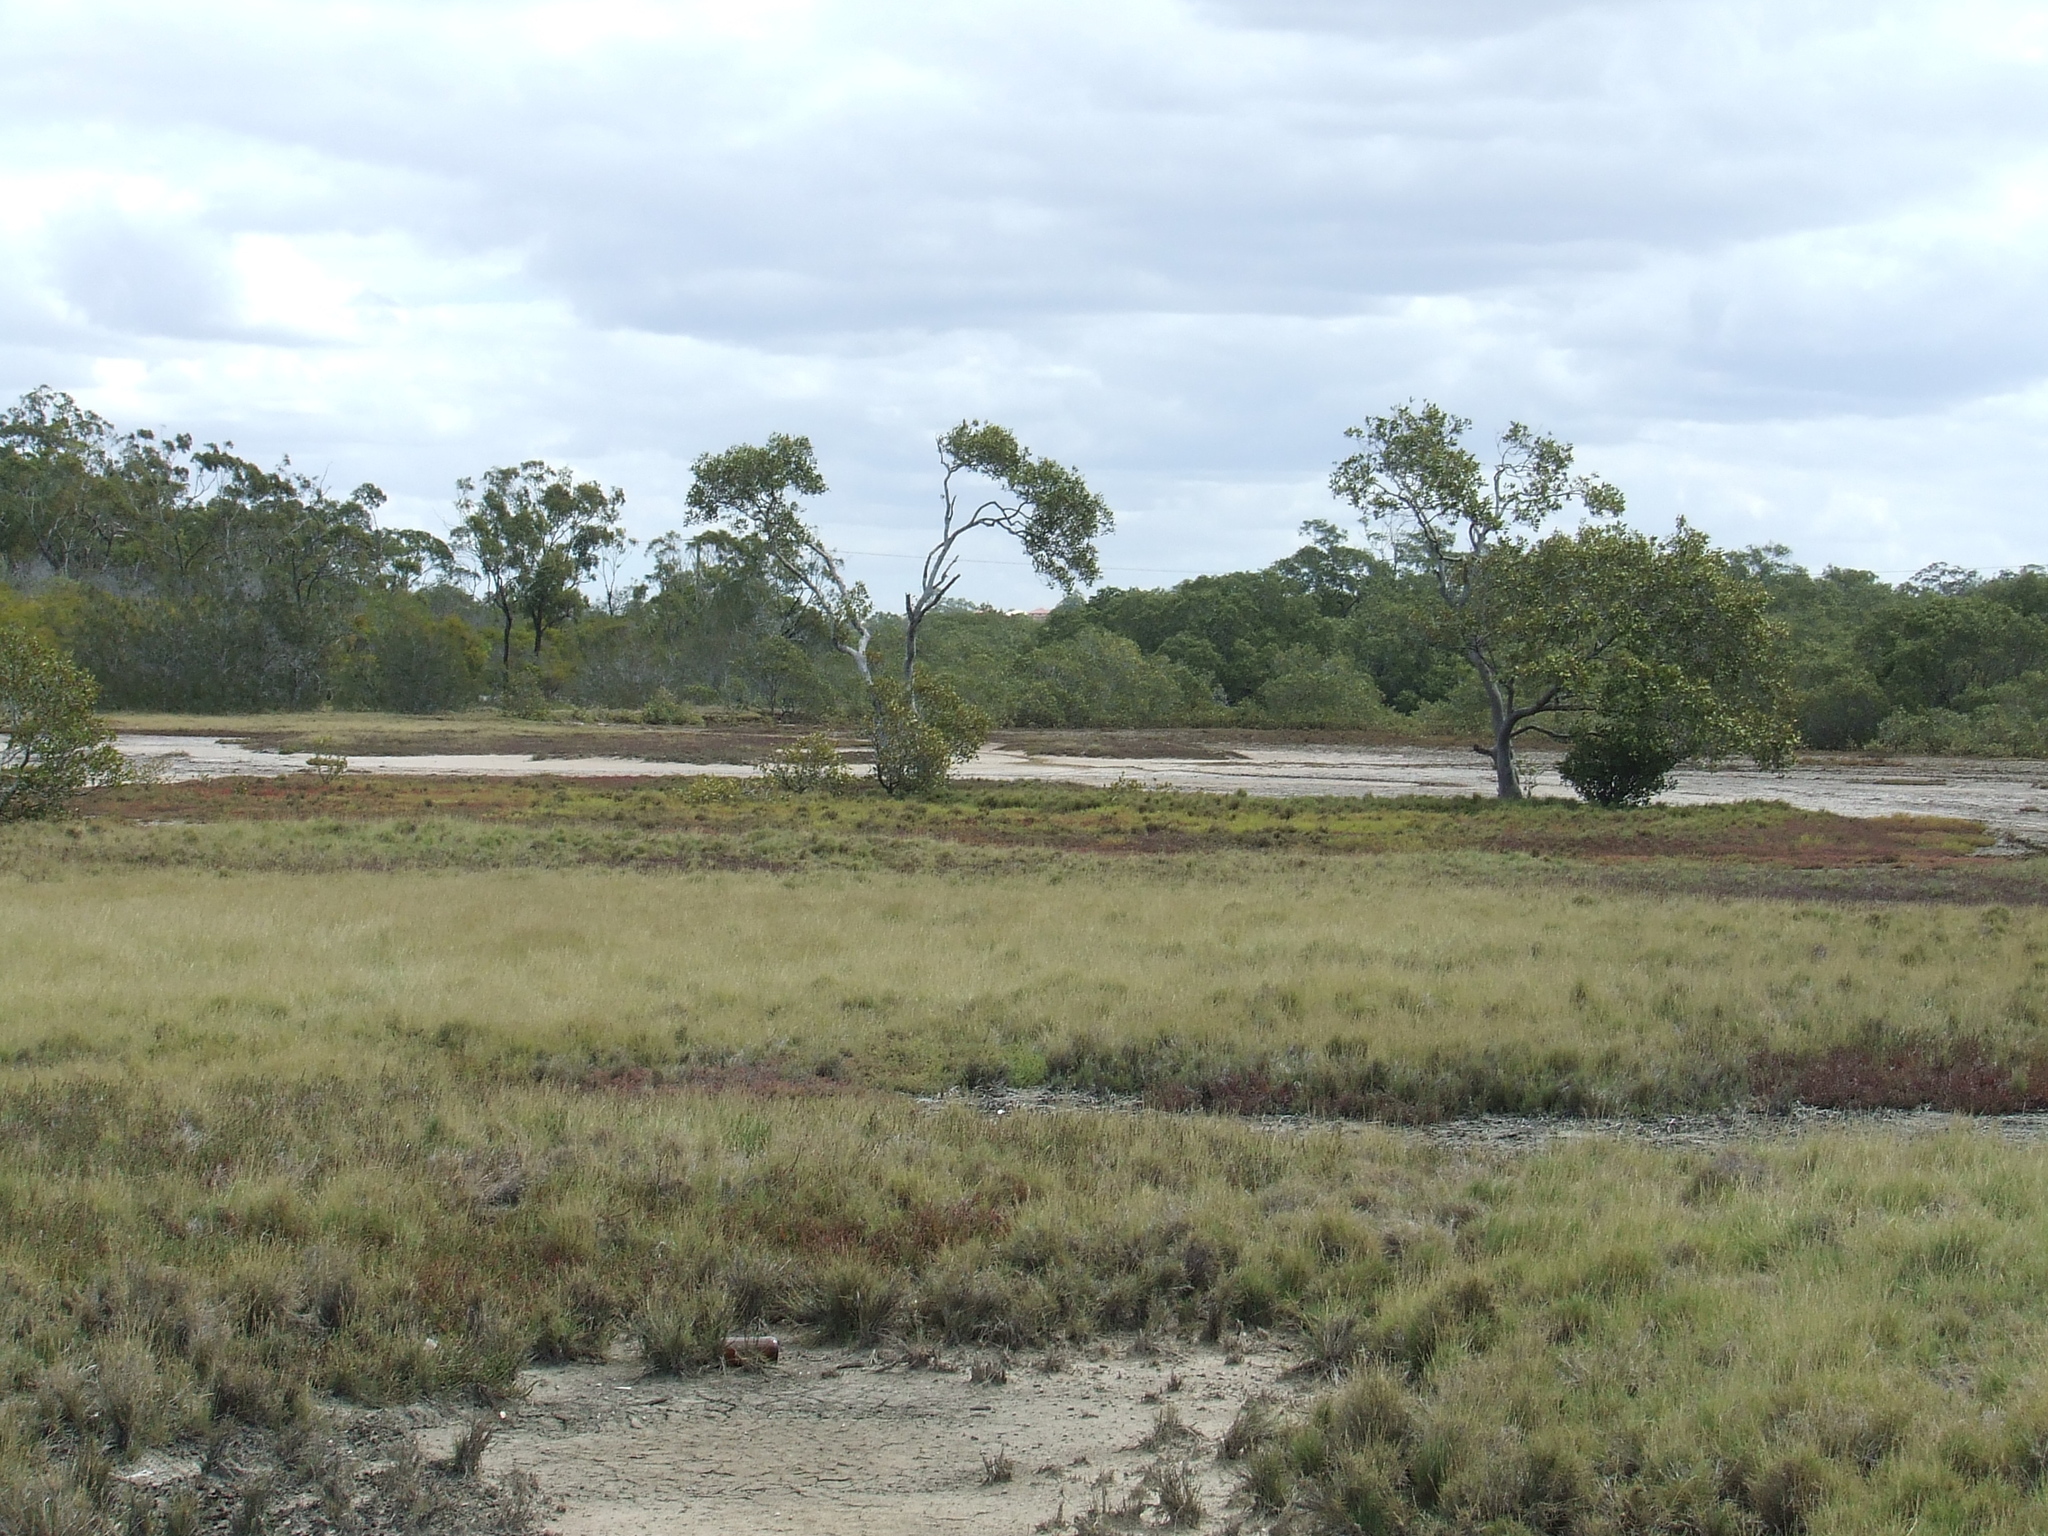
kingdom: Plantae
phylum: Tracheophyta
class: Liliopsida
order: Poales
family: Poaceae
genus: Sporobolus
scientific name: Sporobolus virginicus
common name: Beach dropseed
